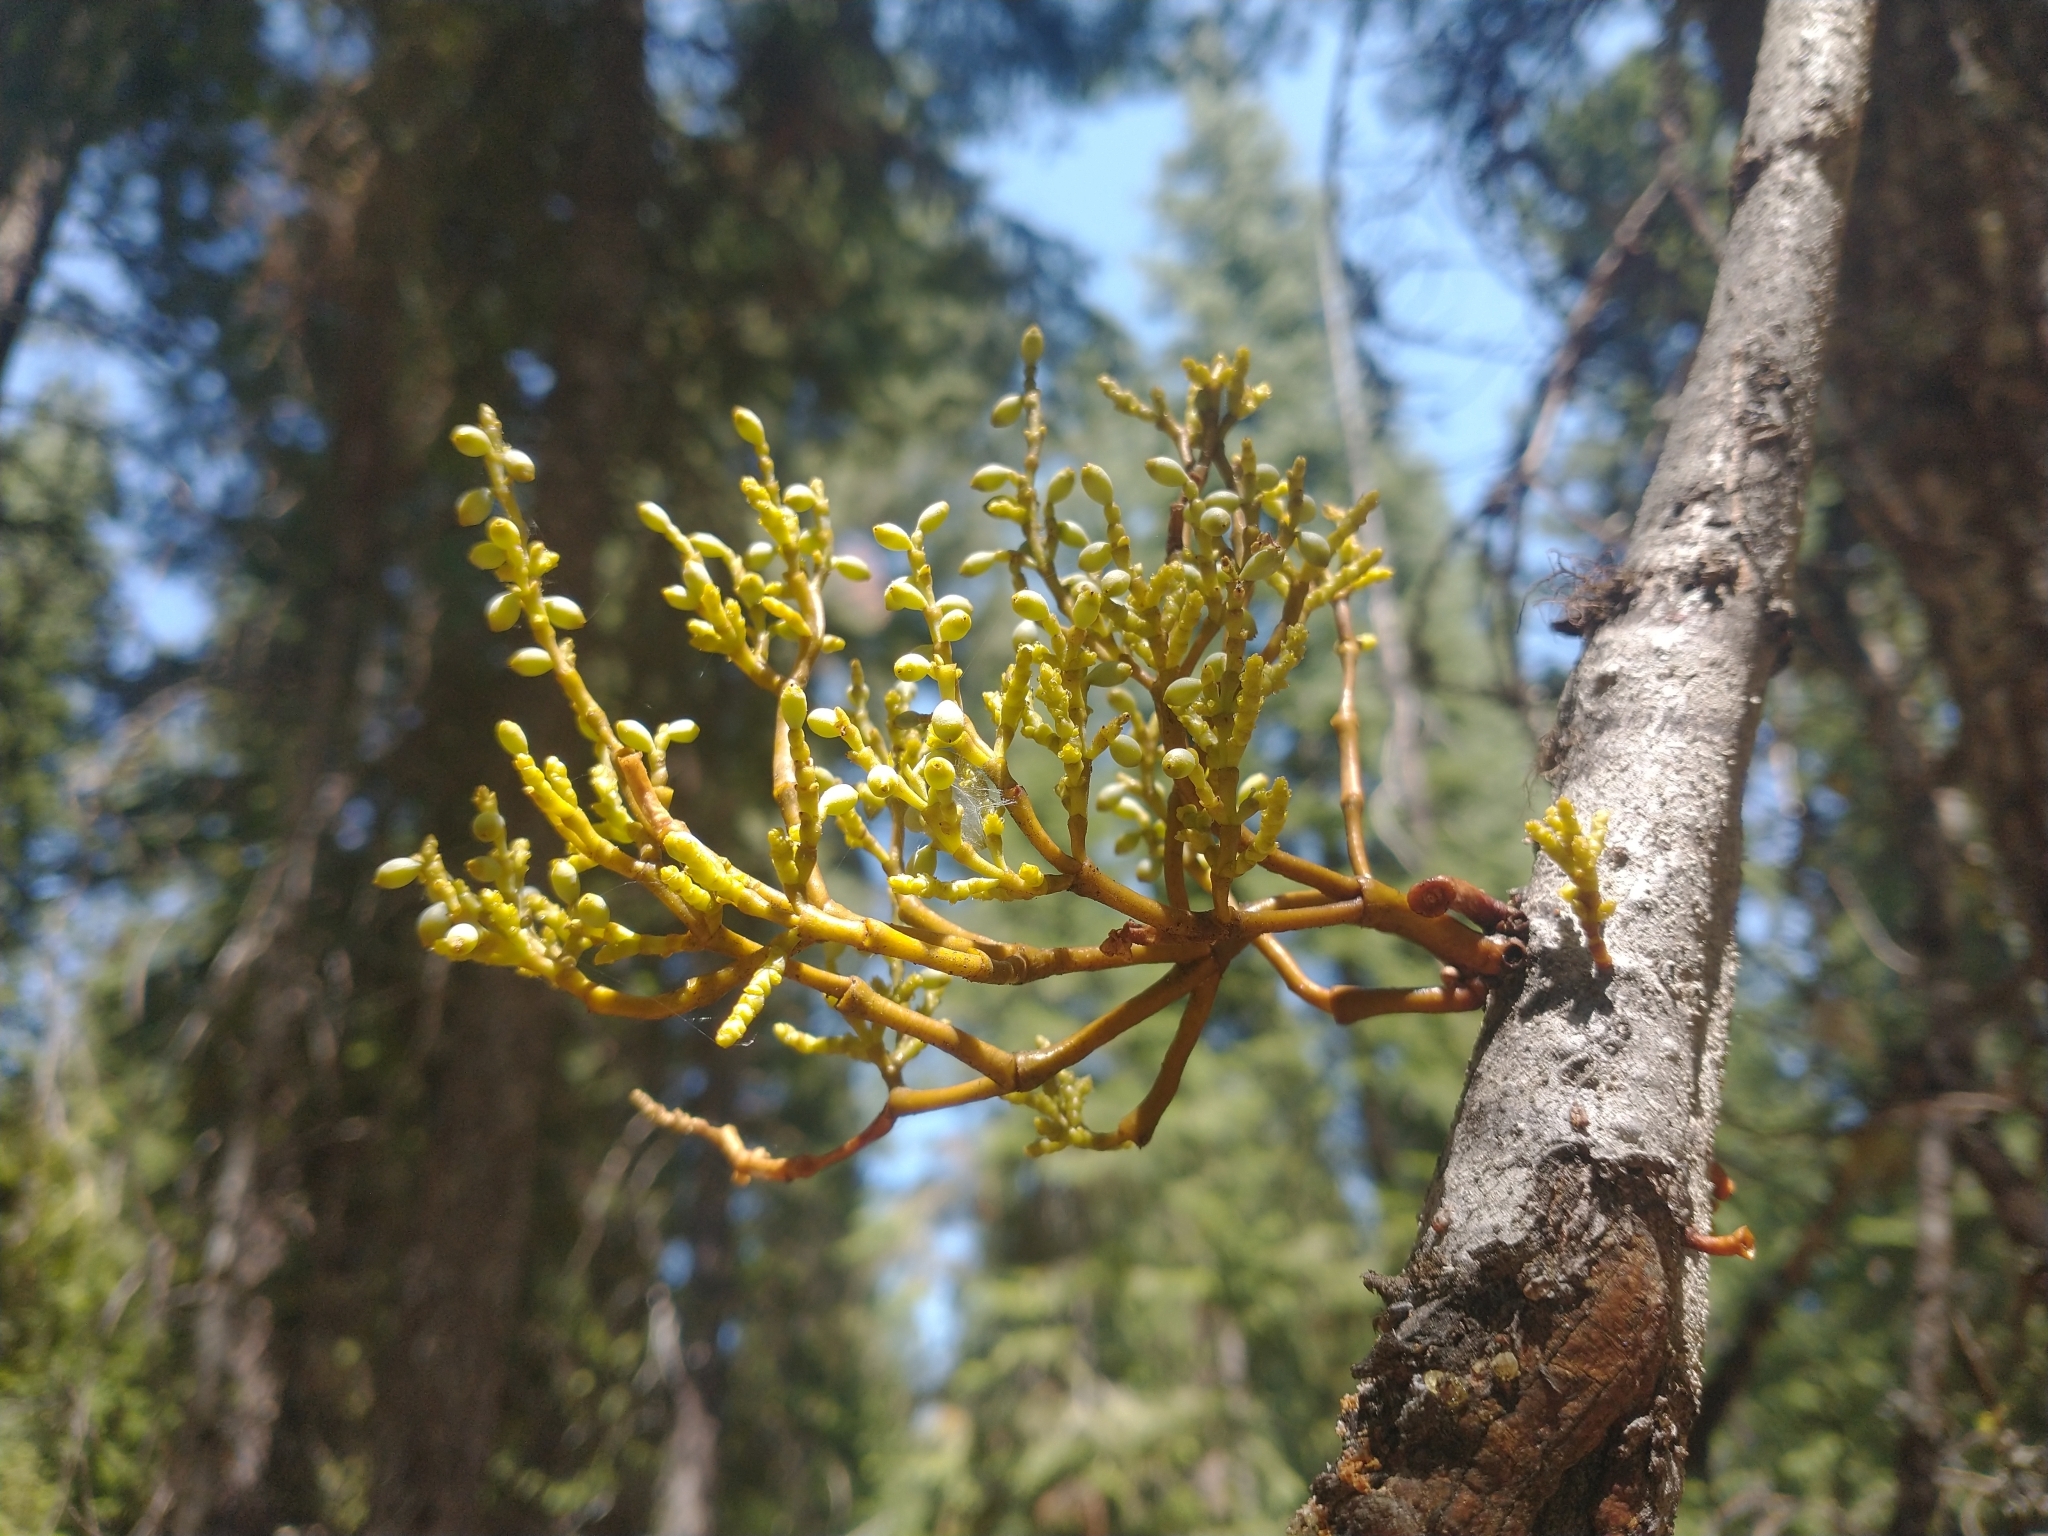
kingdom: Plantae
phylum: Tracheophyta
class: Magnoliopsida
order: Santalales
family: Viscaceae
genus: Arceuthobium
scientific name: Arceuthobium abietinum
